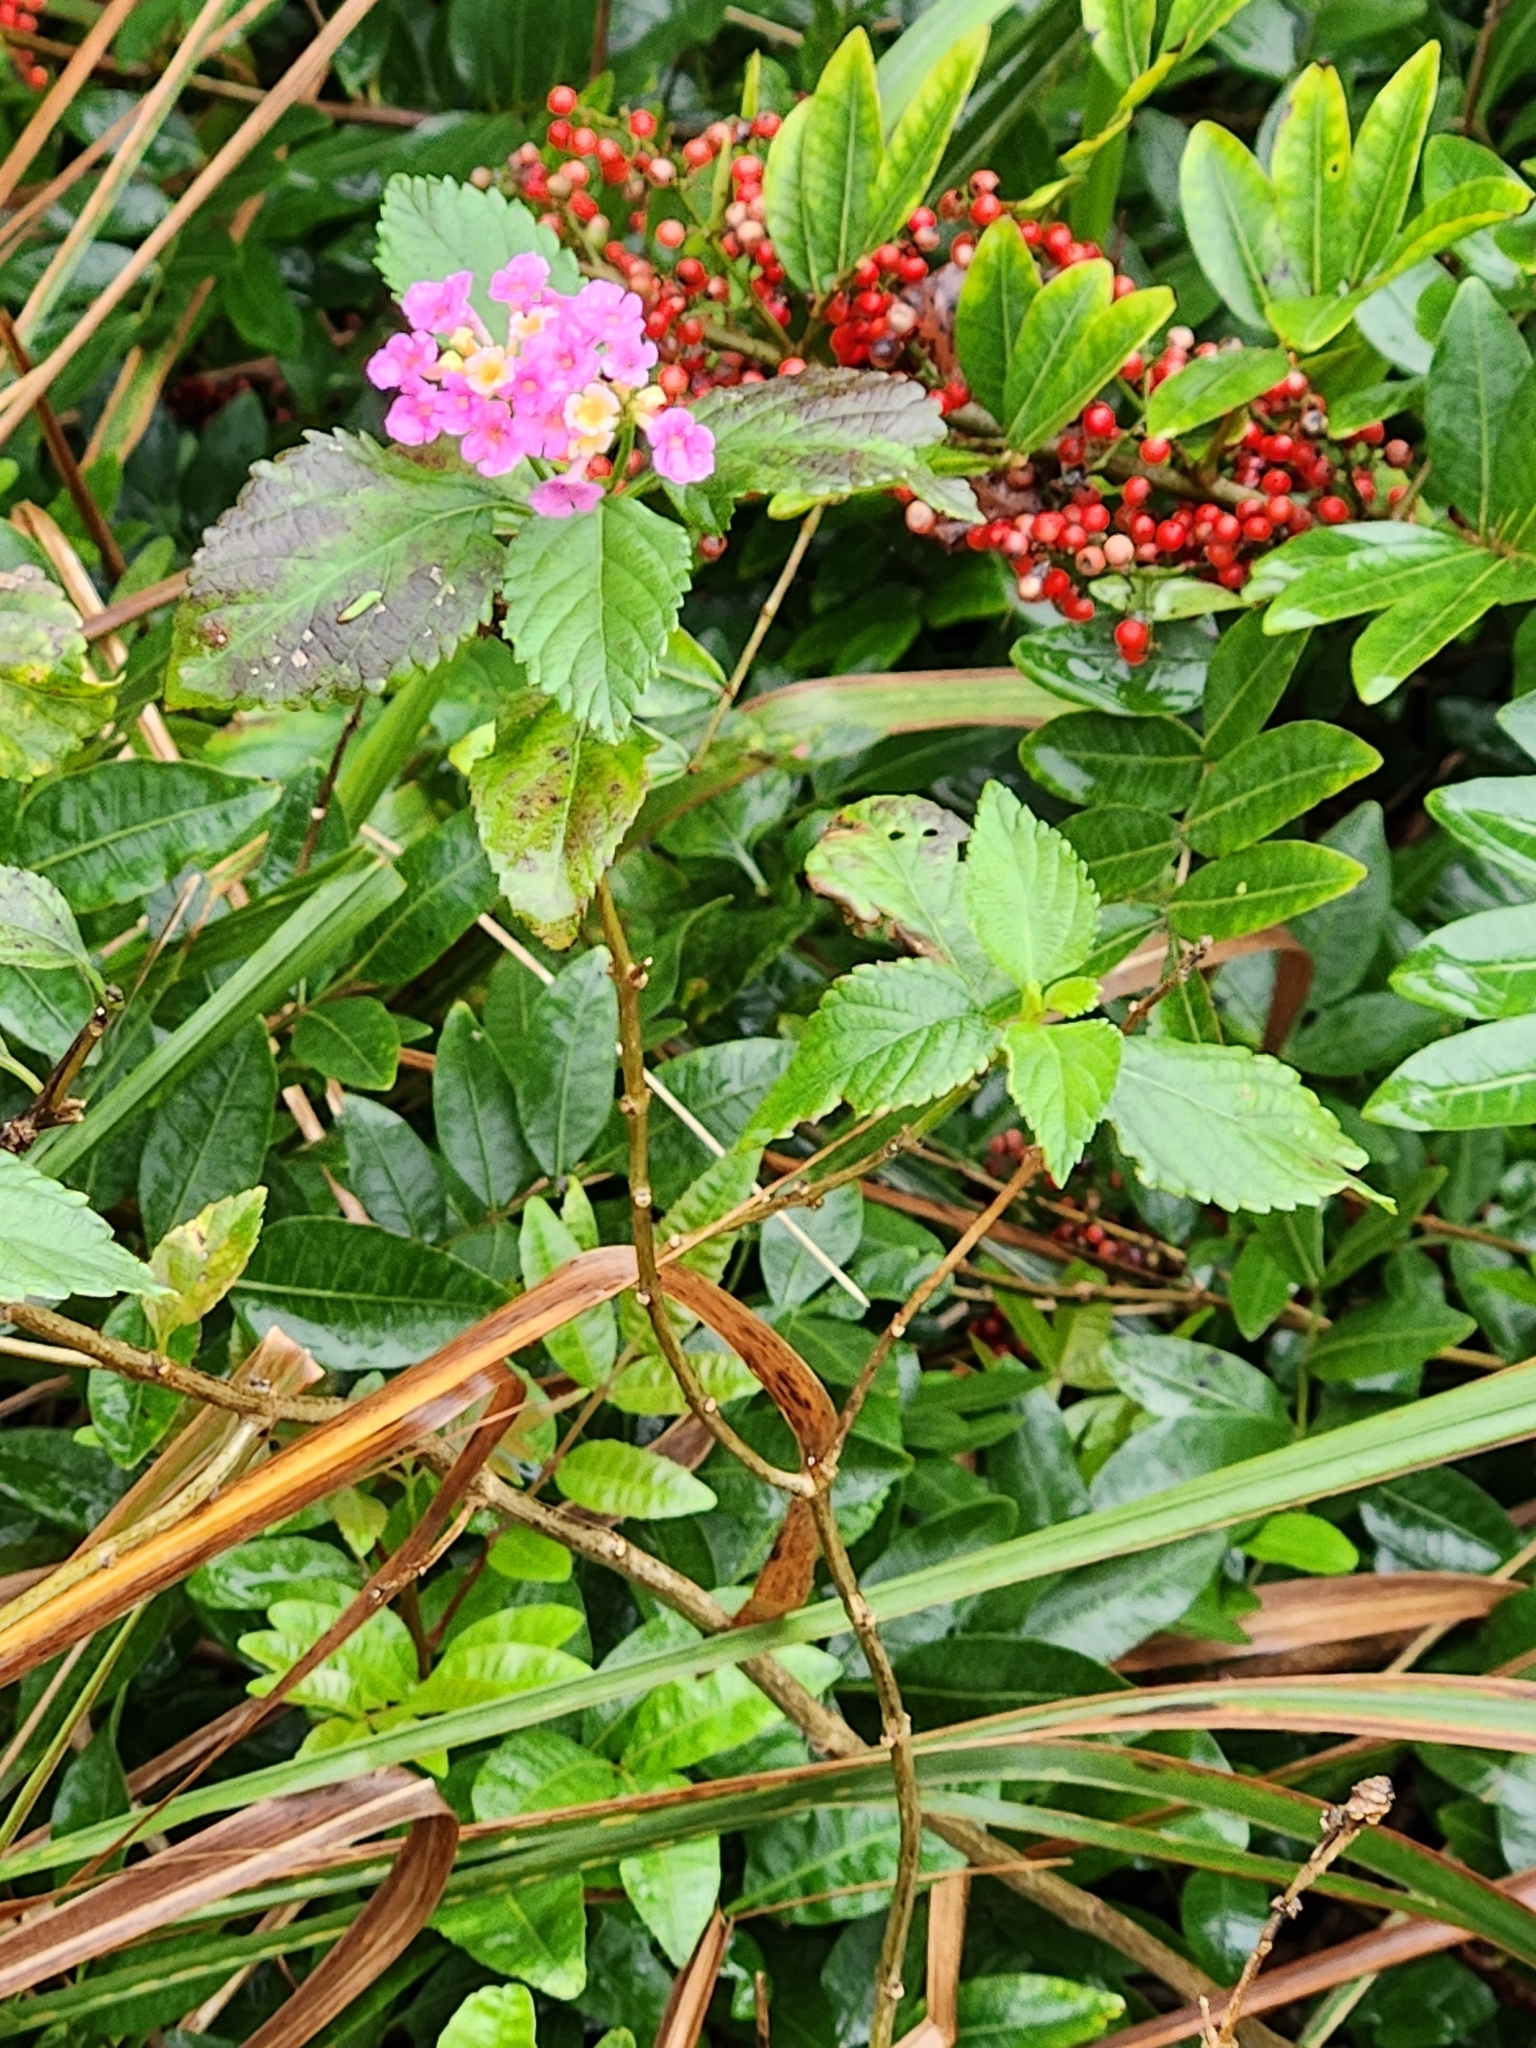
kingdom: Plantae
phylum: Tracheophyta
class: Magnoliopsida
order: Lamiales
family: Verbenaceae
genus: Lantana
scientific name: Lantana strigocamara
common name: Lantana
